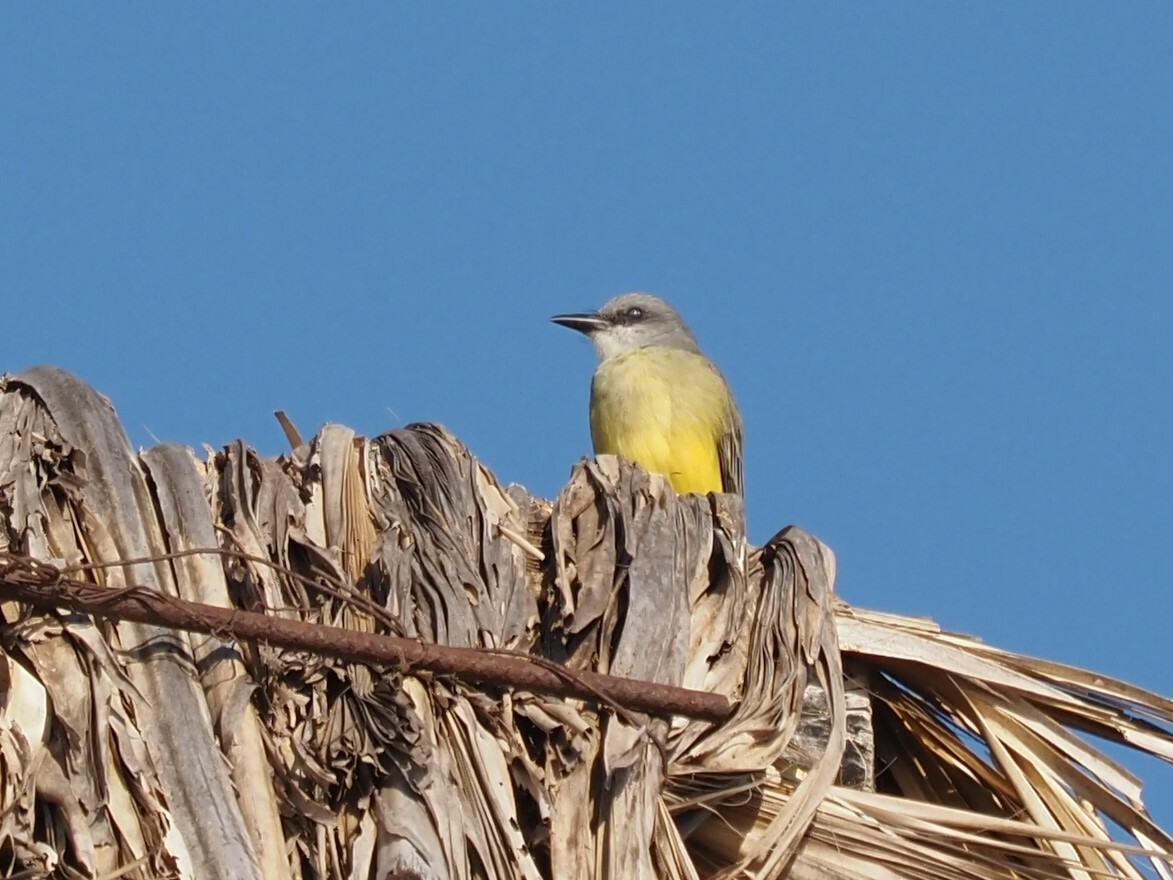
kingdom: Animalia
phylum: Chordata
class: Aves
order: Passeriformes
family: Tyrannidae
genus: Tyrannus
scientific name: Tyrannus melancholicus
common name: Tropical kingbird
